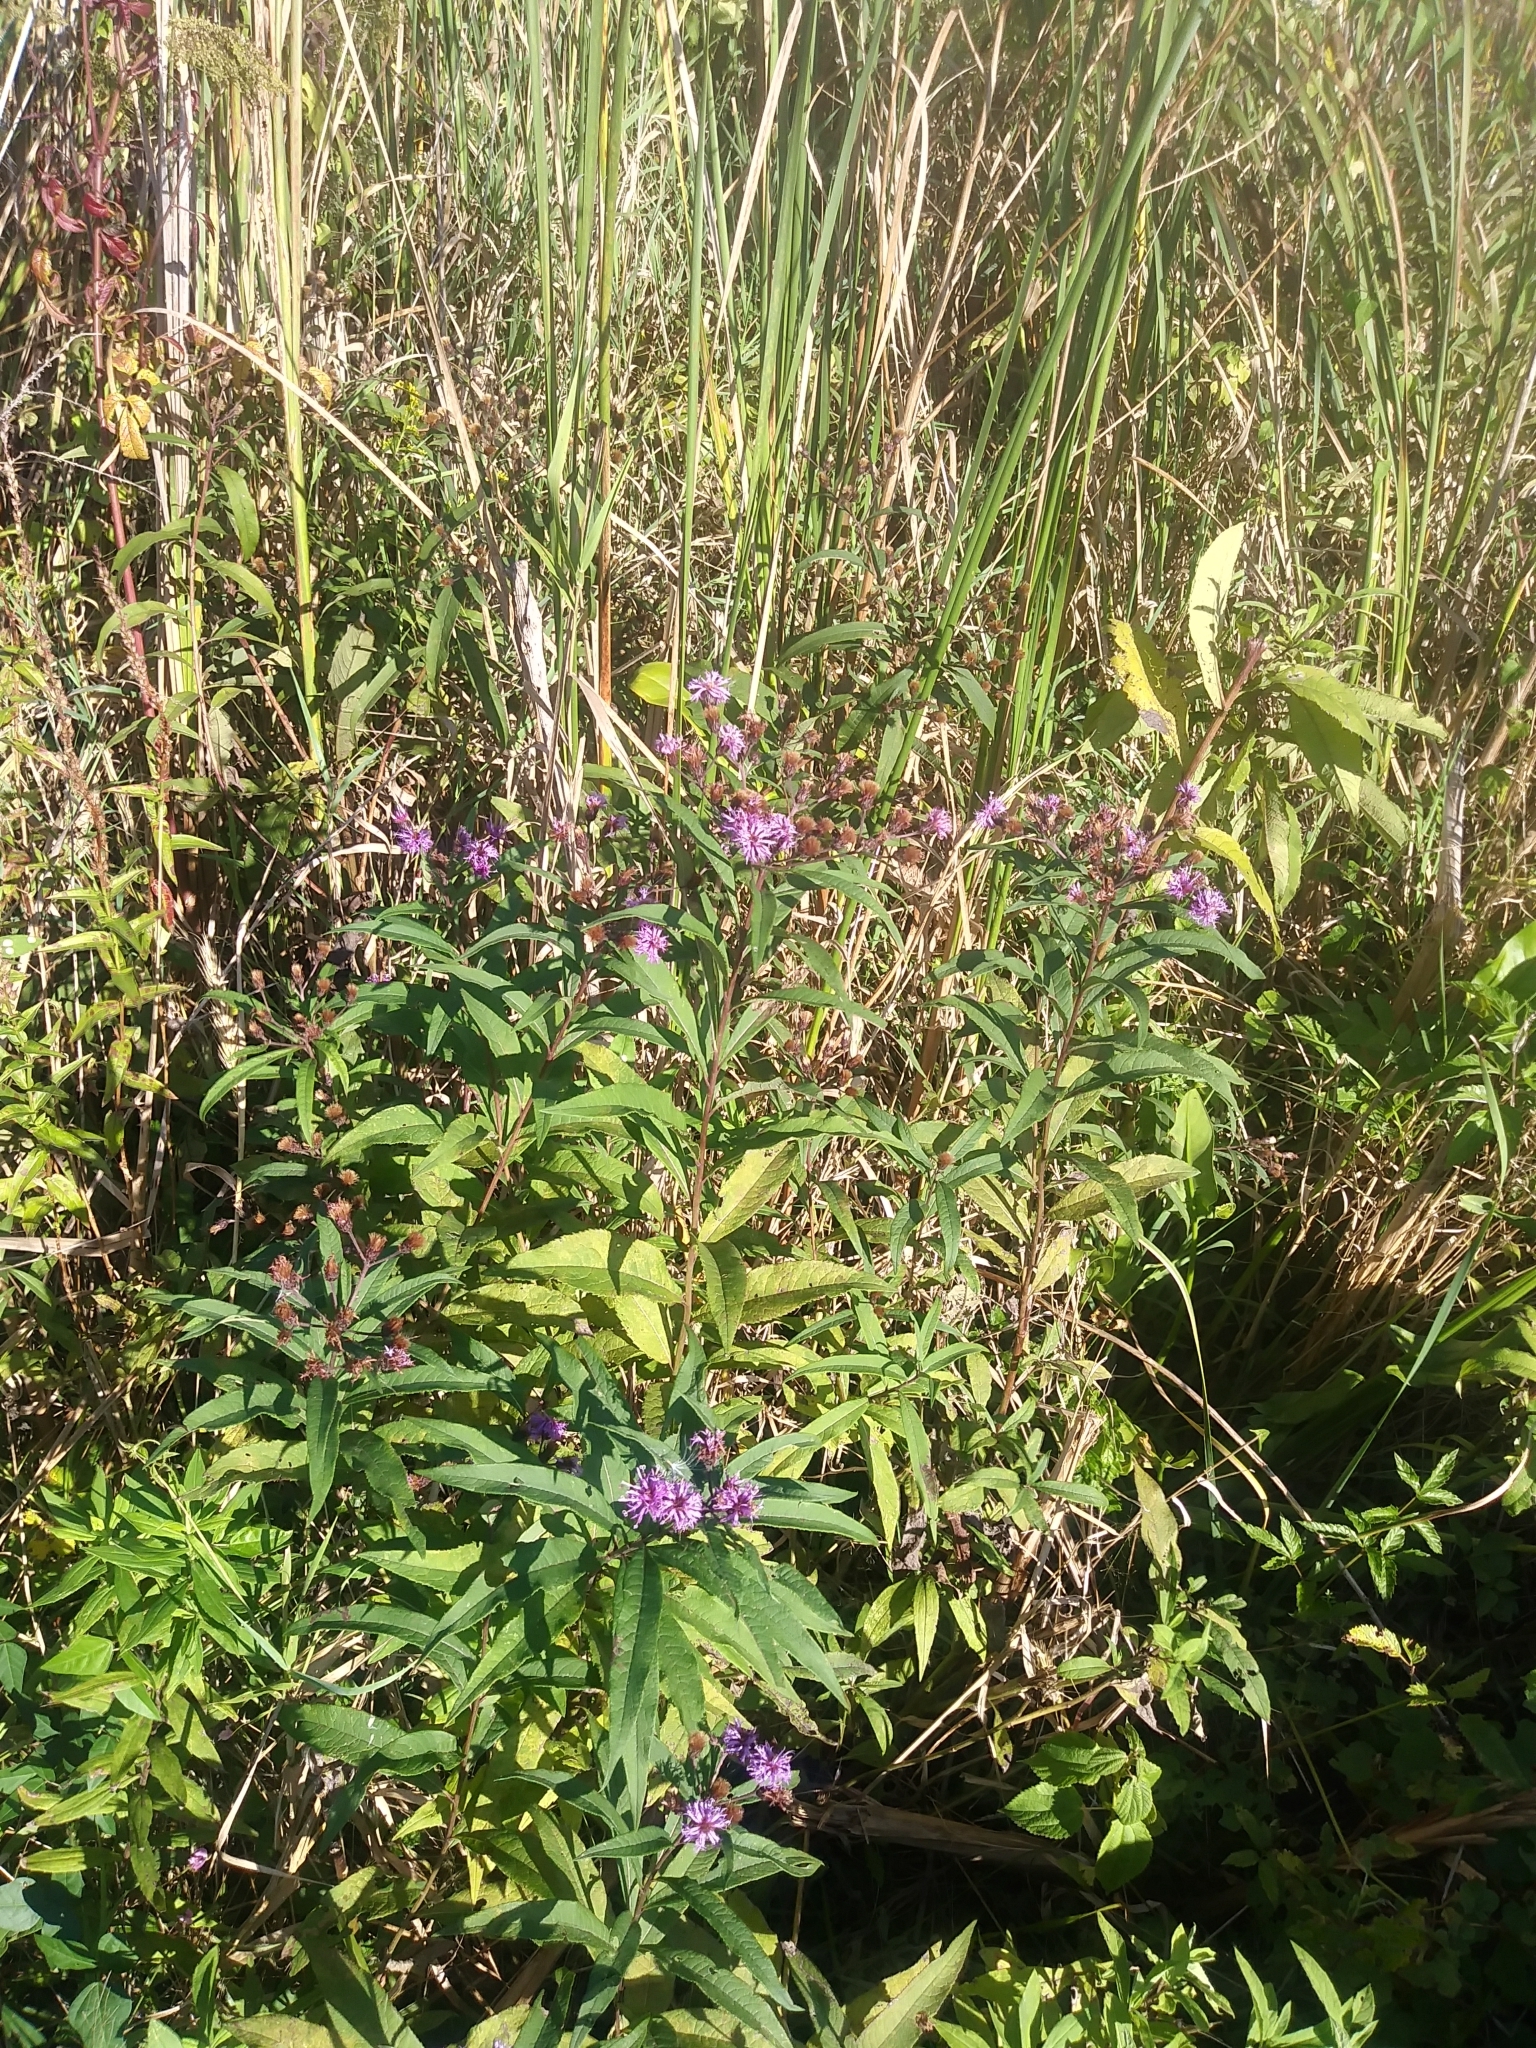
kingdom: Plantae
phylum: Tracheophyta
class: Magnoliopsida
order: Asterales
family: Asteraceae
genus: Vernonia
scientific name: Vernonia noveboracensis
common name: New york ironweed
